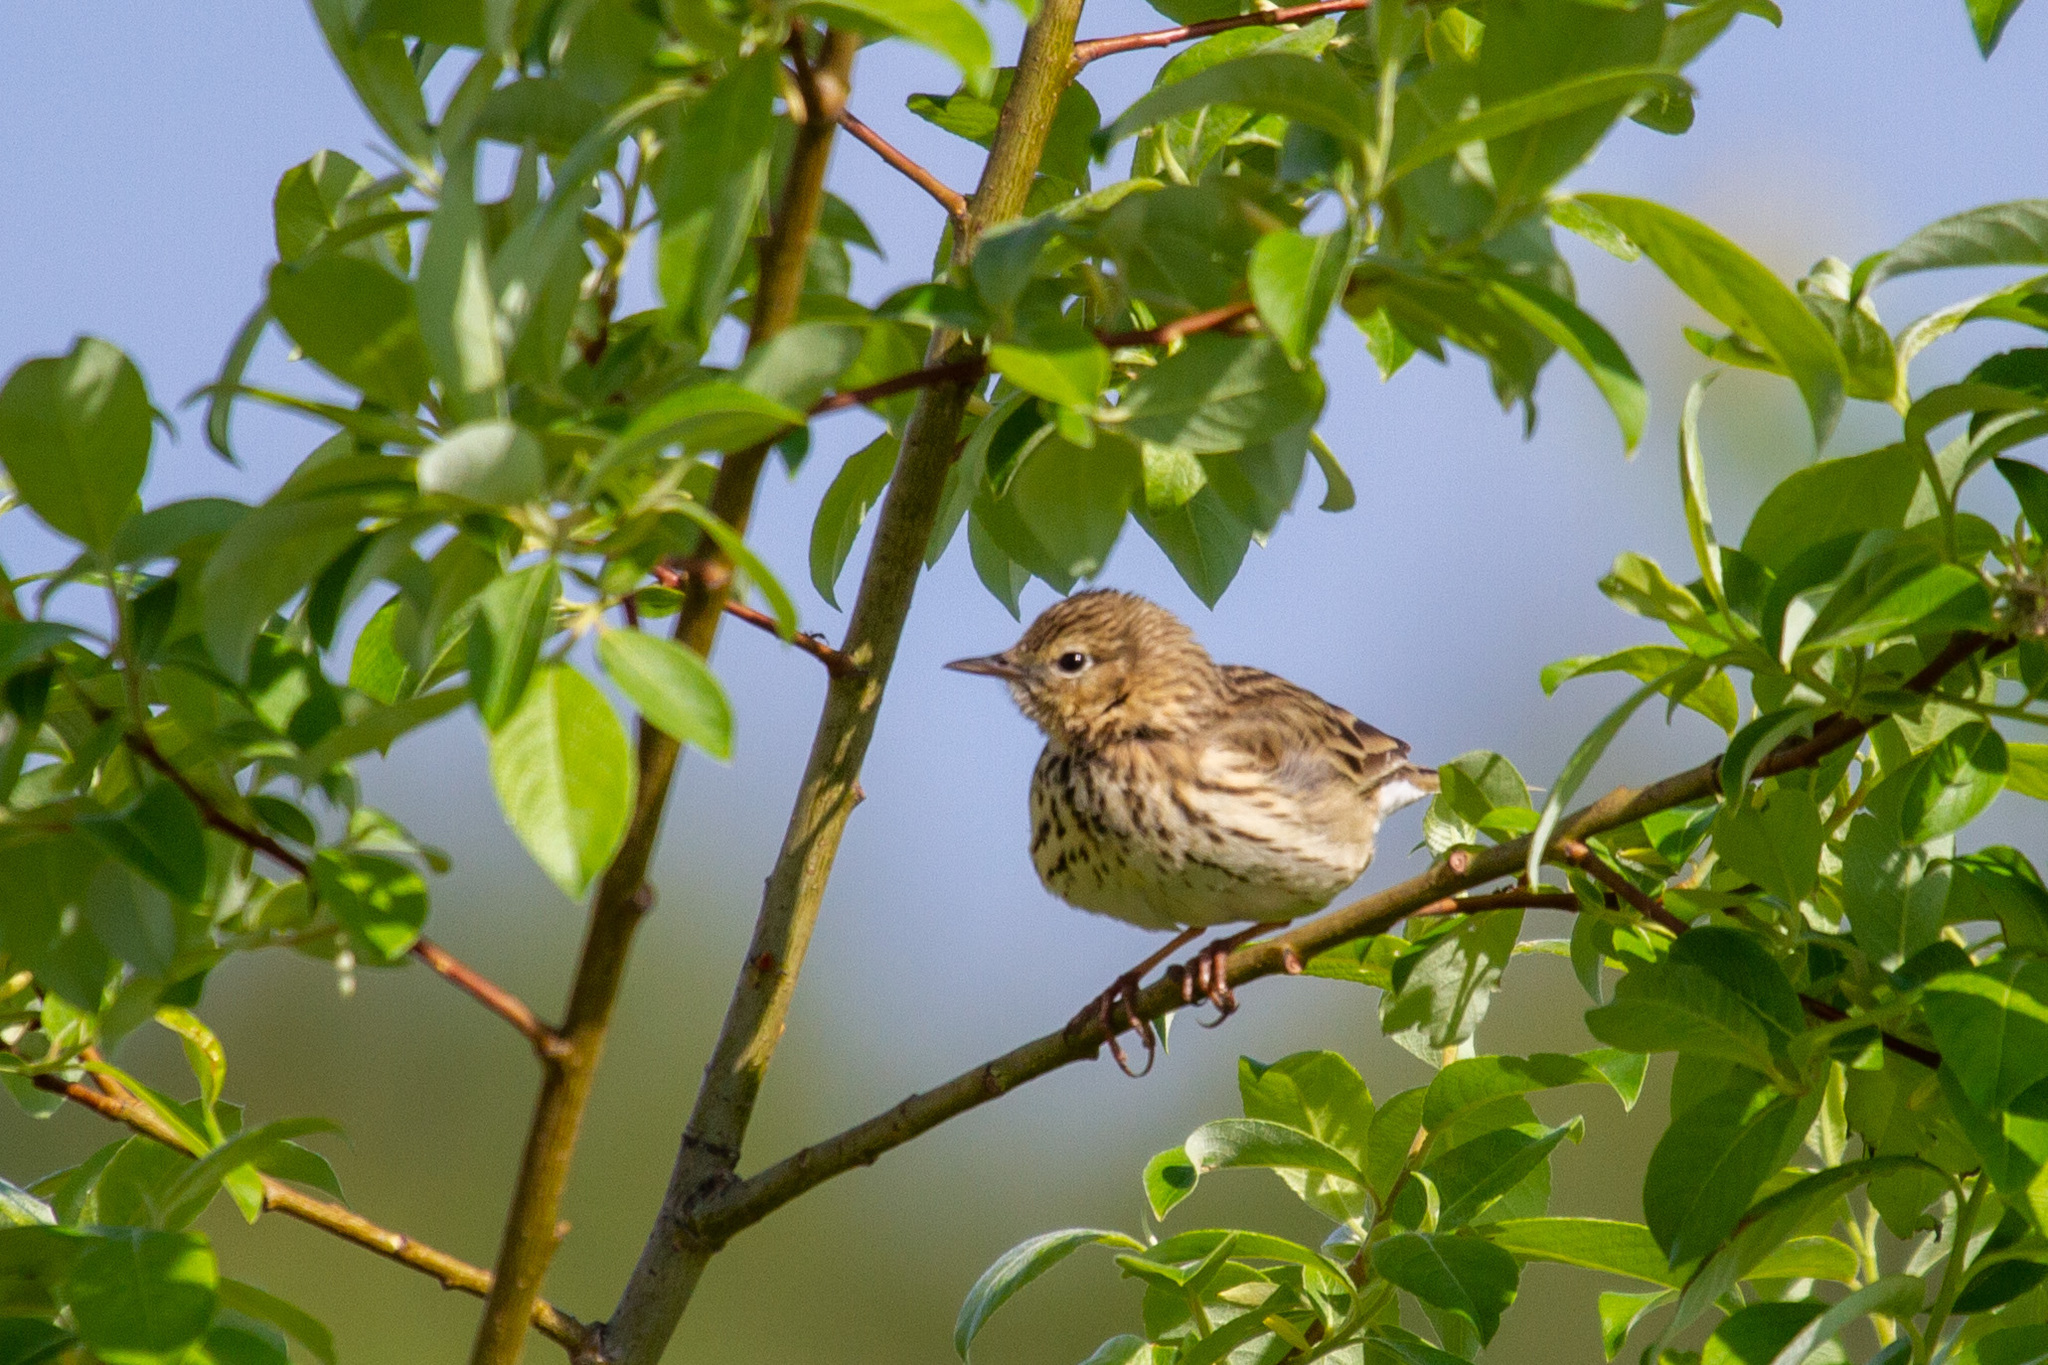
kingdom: Animalia
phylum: Chordata
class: Aves
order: Passeriformes
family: Motacillidae
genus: Anthus
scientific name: Anthus trivialis
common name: Tree pipit
